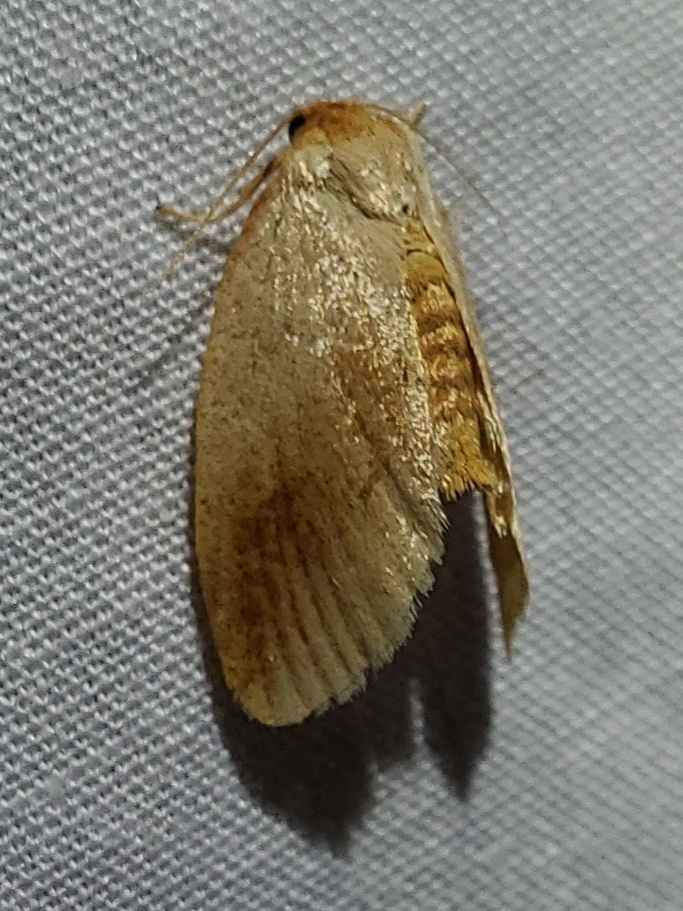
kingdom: Animalia
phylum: Arthropoda
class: Insecta
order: Lepidoptera
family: Limacodidae
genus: Tortricidia
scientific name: Tortricidia testacea
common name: Early button slug moth
